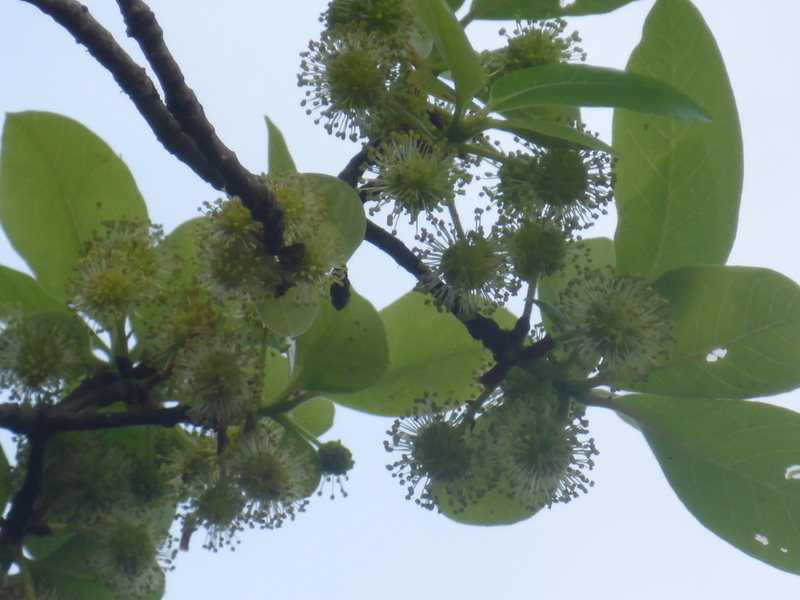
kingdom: Plantae
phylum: Tracheophyta
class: Magnoliopsida
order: Cornales
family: Nyssaceae
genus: Nyssa
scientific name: Nyssa ogeche
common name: Ogeechee tupelo
